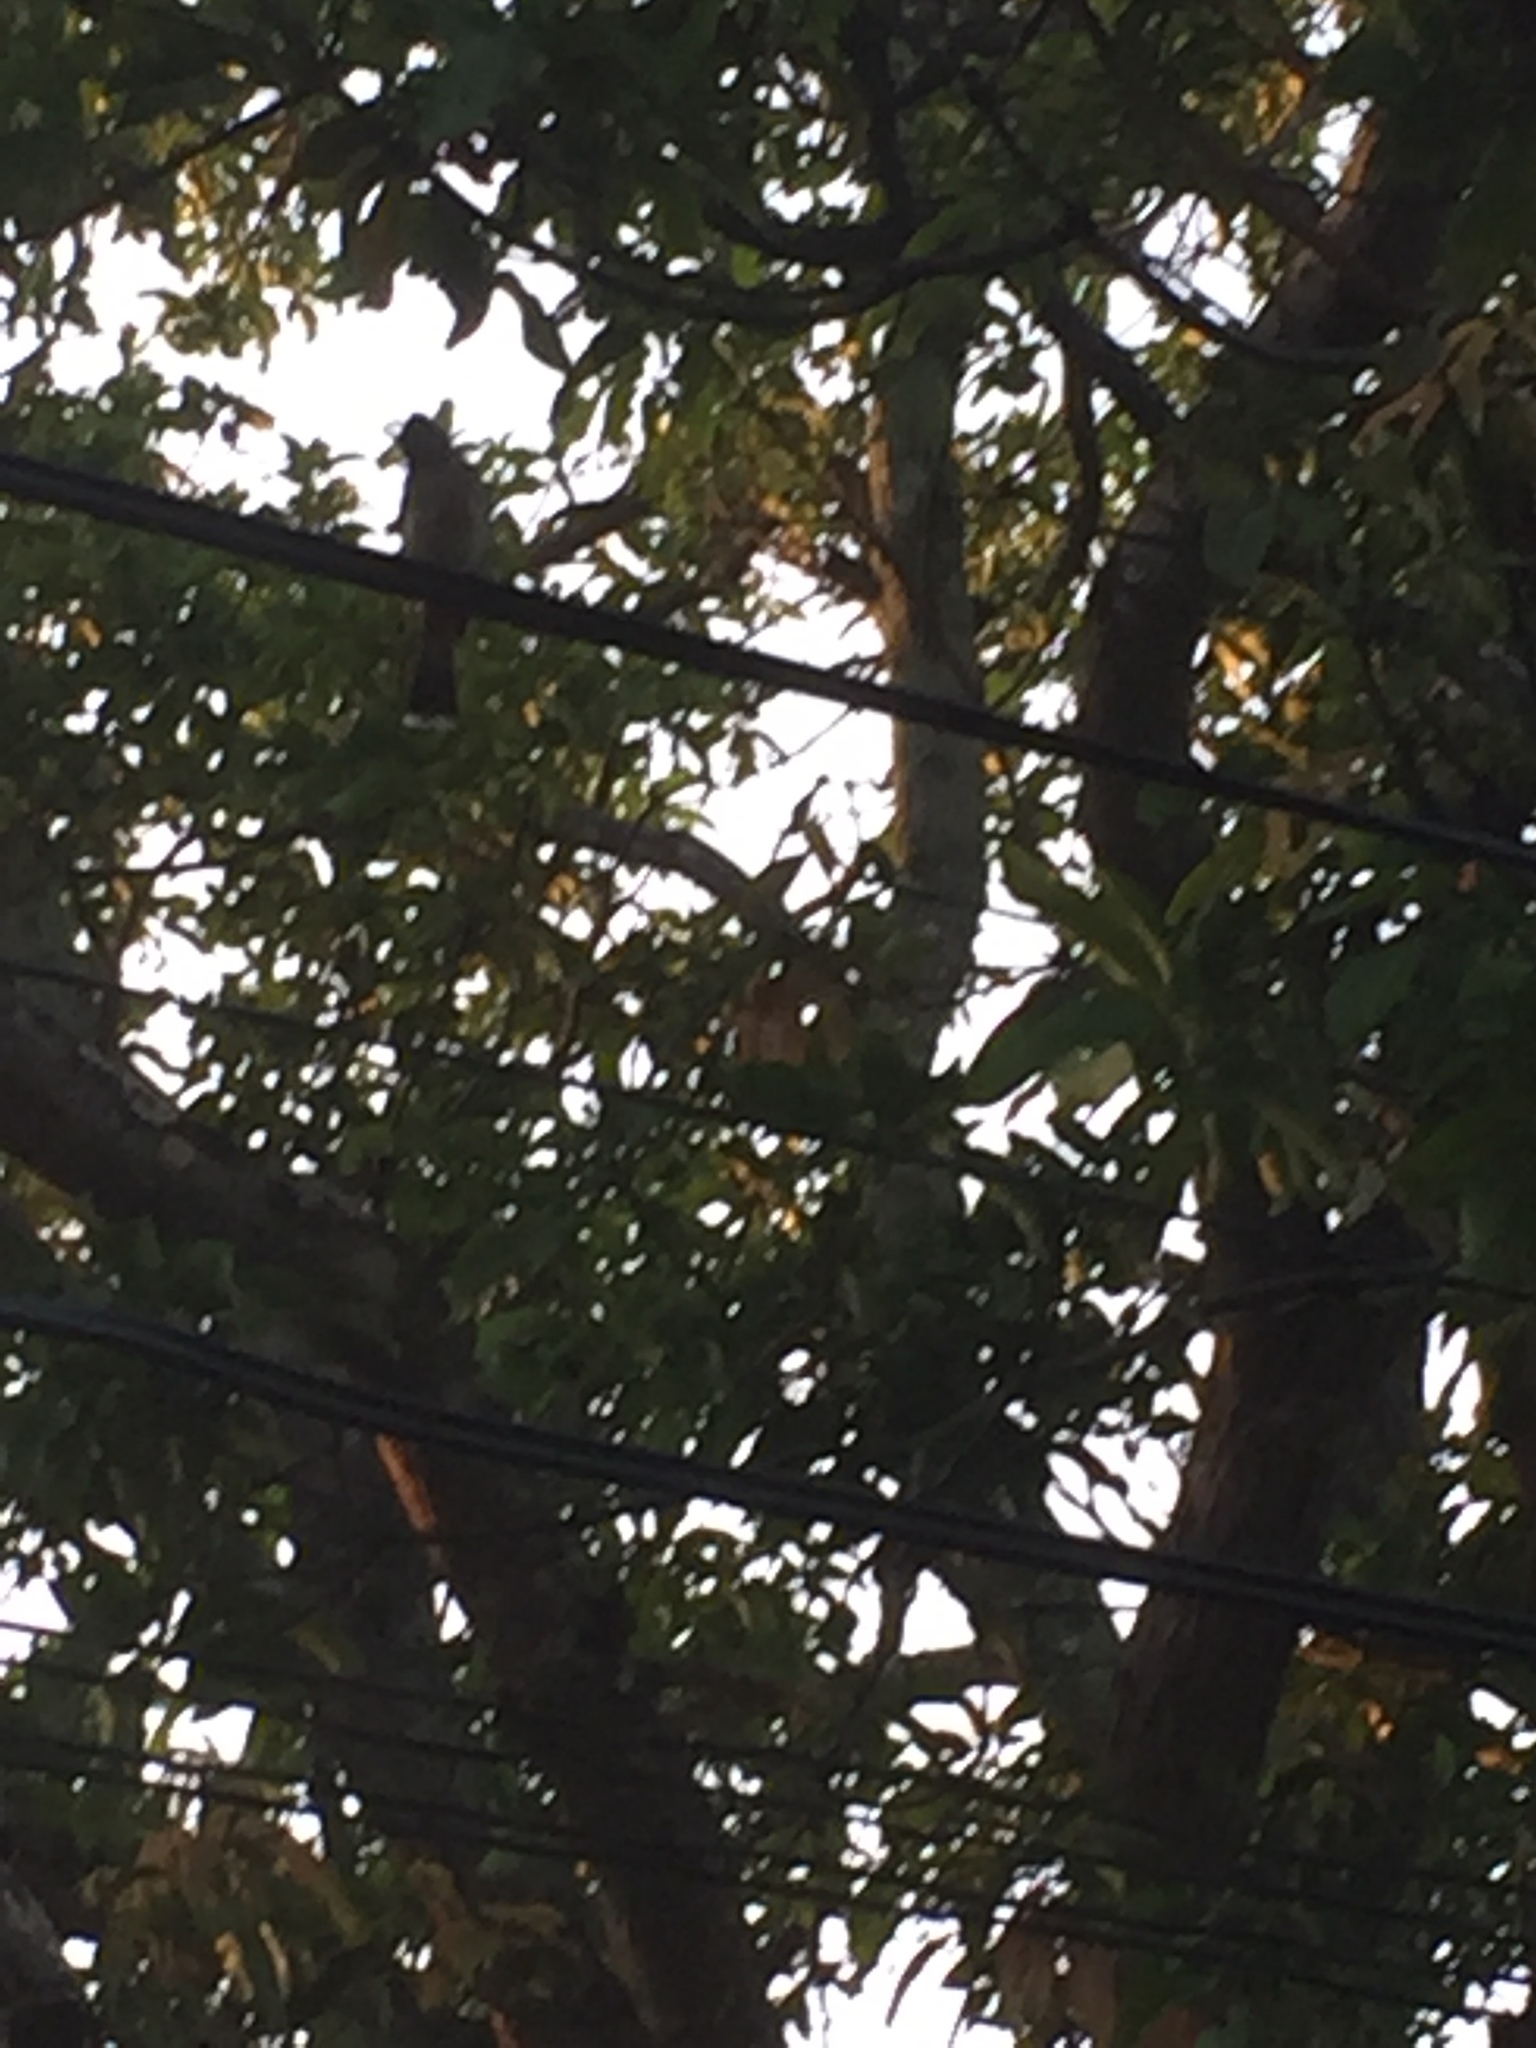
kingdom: Animalia
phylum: Chordata
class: Aves
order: Passeriformes
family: Pycnonotidae
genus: Pycnonotus
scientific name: Pycnonotus cafer
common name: Red-vented bulbul
